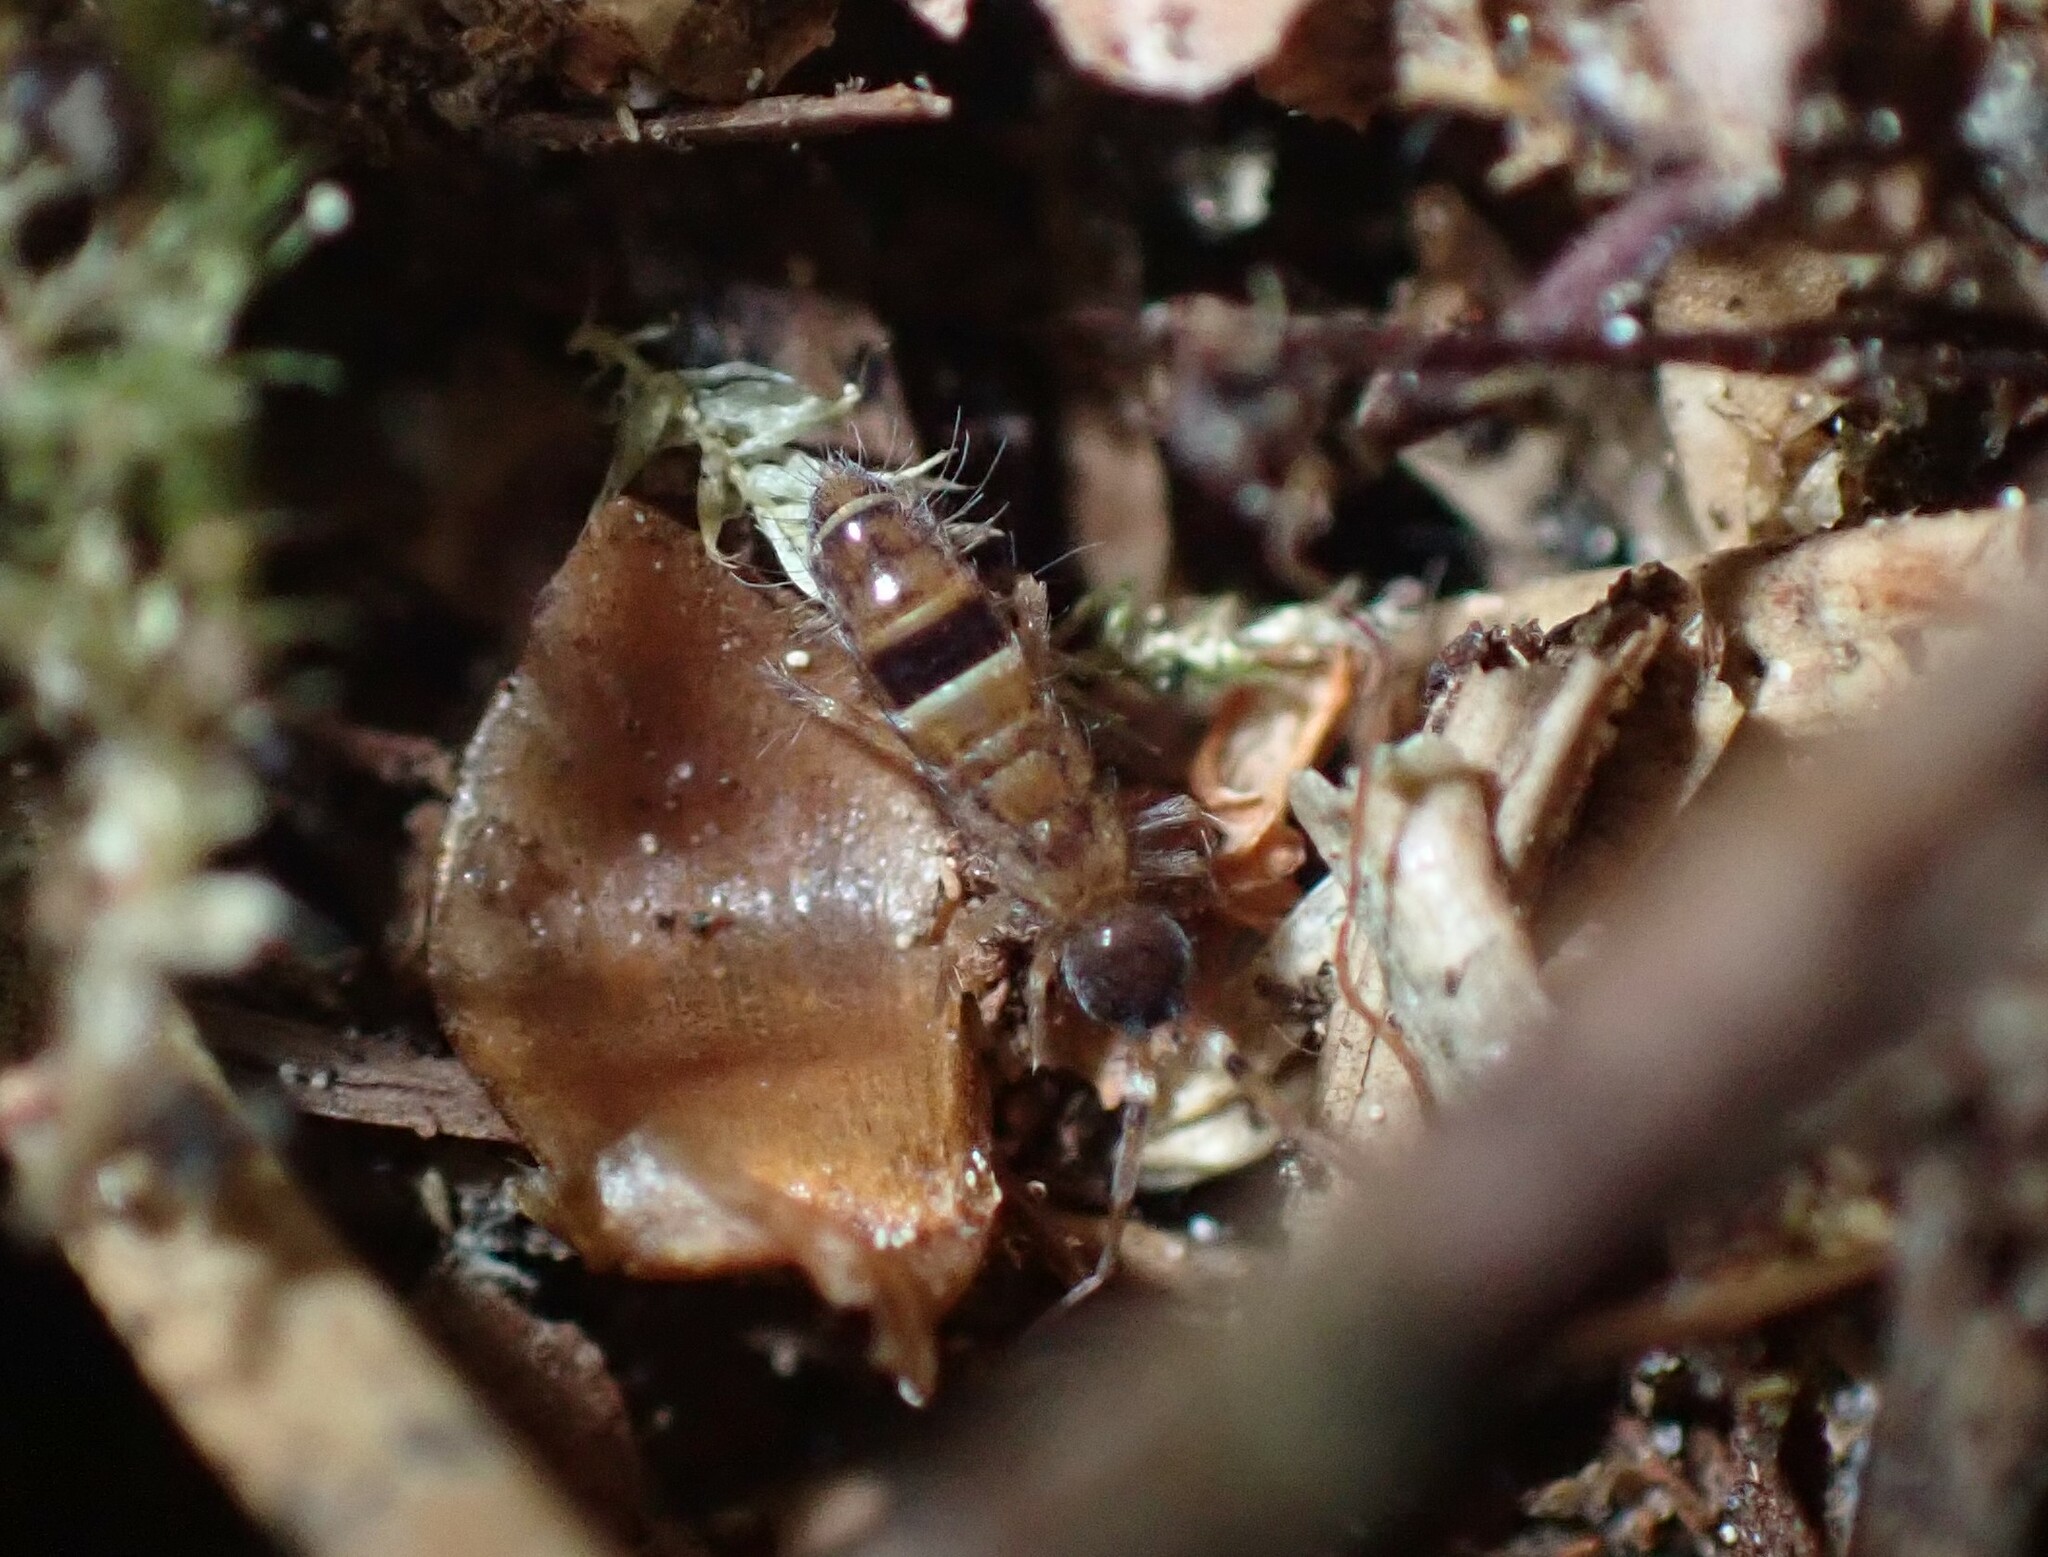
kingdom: Animalia
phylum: Arthropoda
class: Collembola
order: Entomobryomorpha
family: Orchesellidae
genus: Orchesella
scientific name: Orchesella cincta
